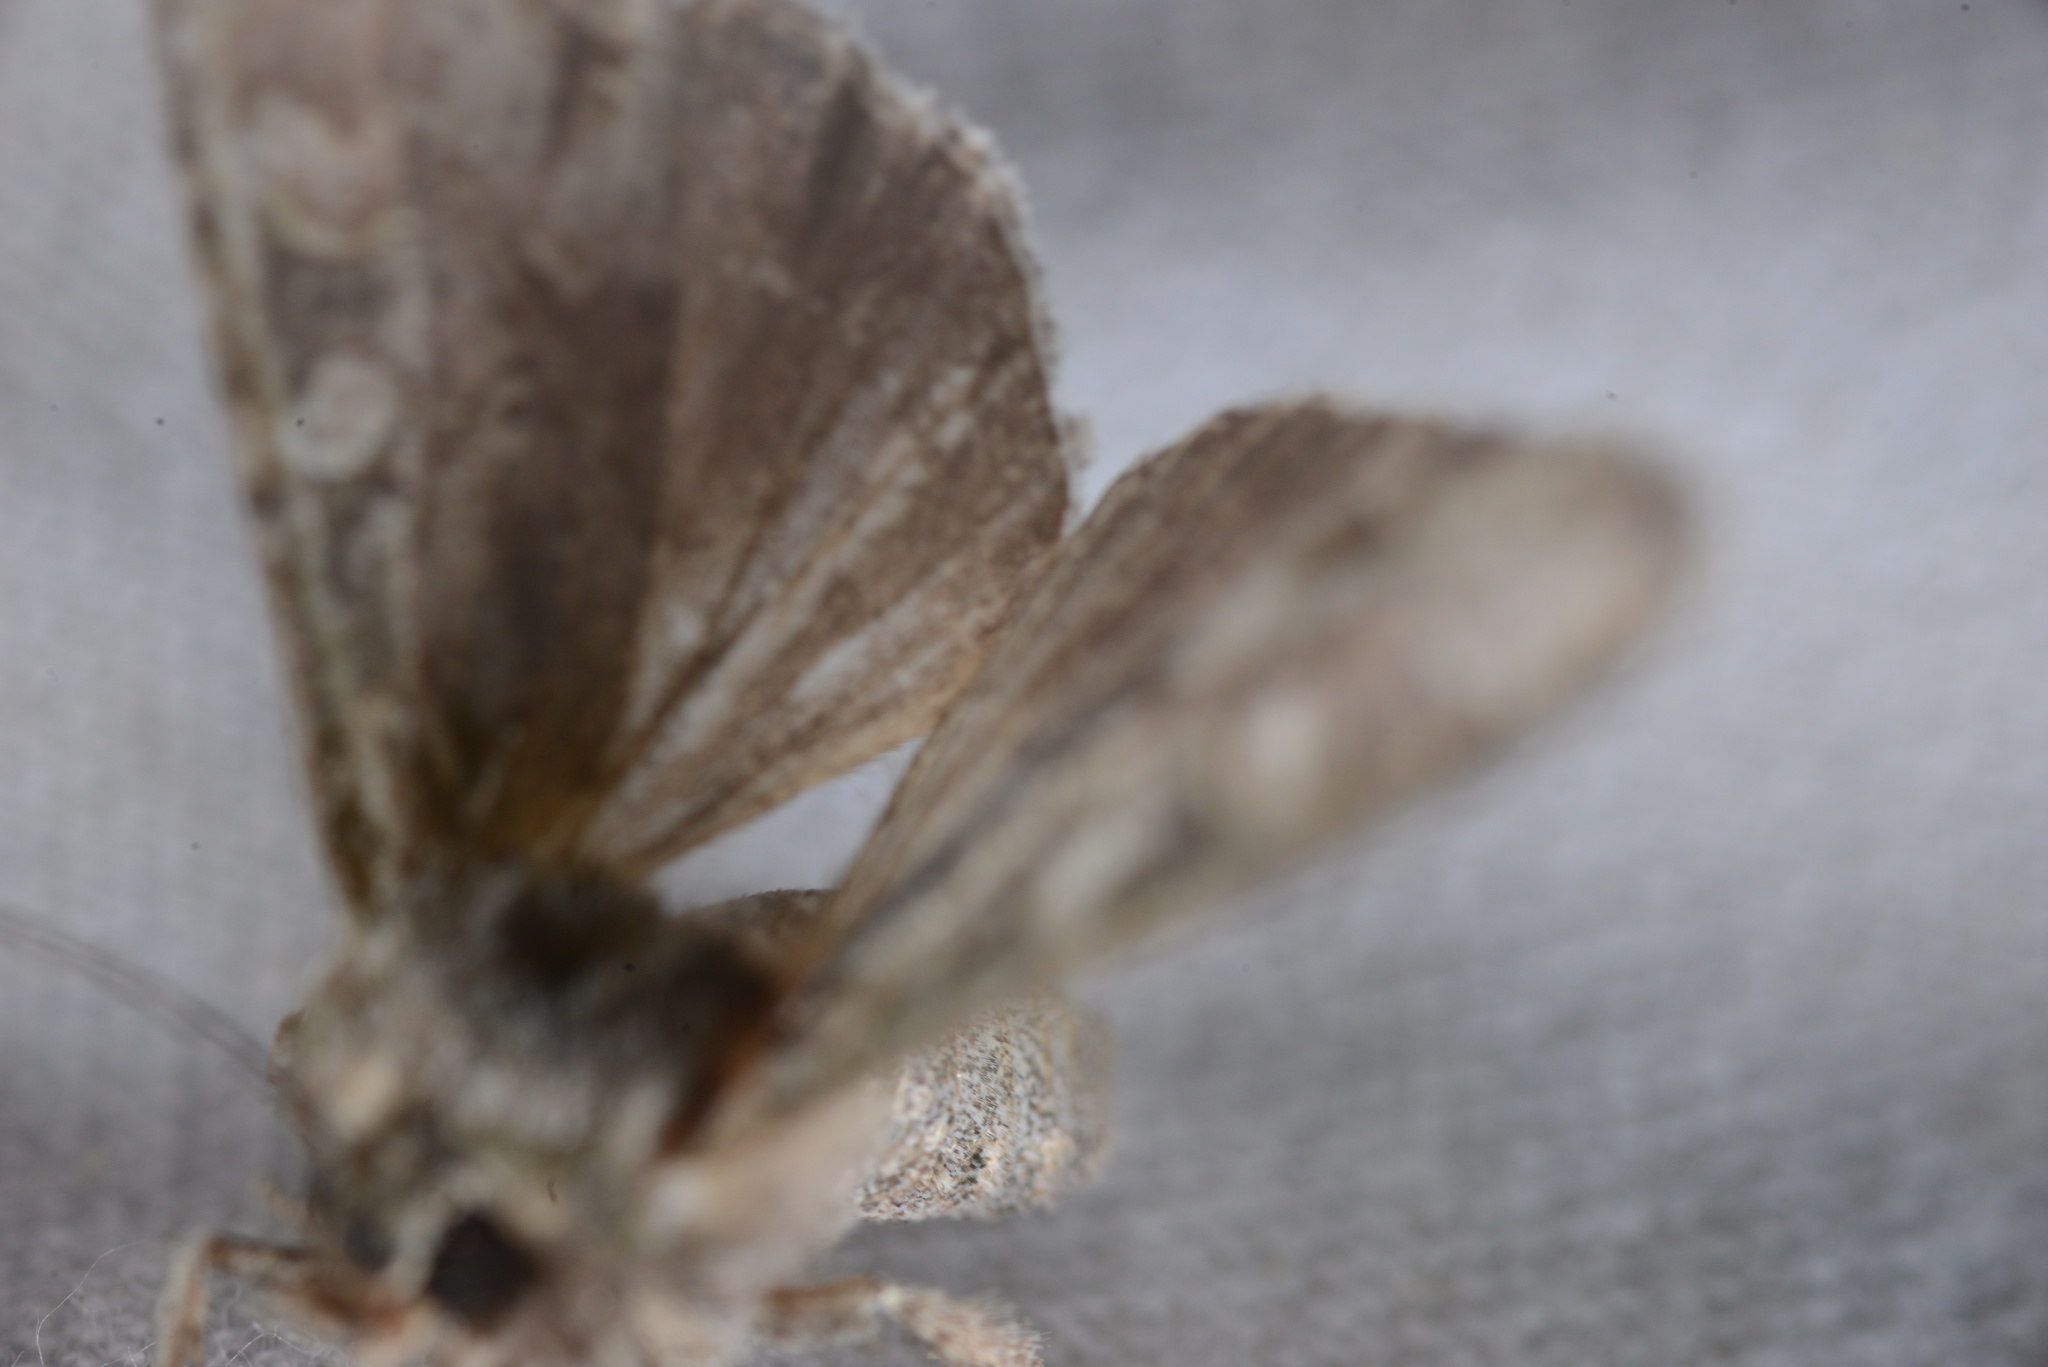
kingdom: Animalia
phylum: Arthropoda
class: Insecta
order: Lepidoptera
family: Noctuidae
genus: Ichneutica
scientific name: Ichneutica mutans
